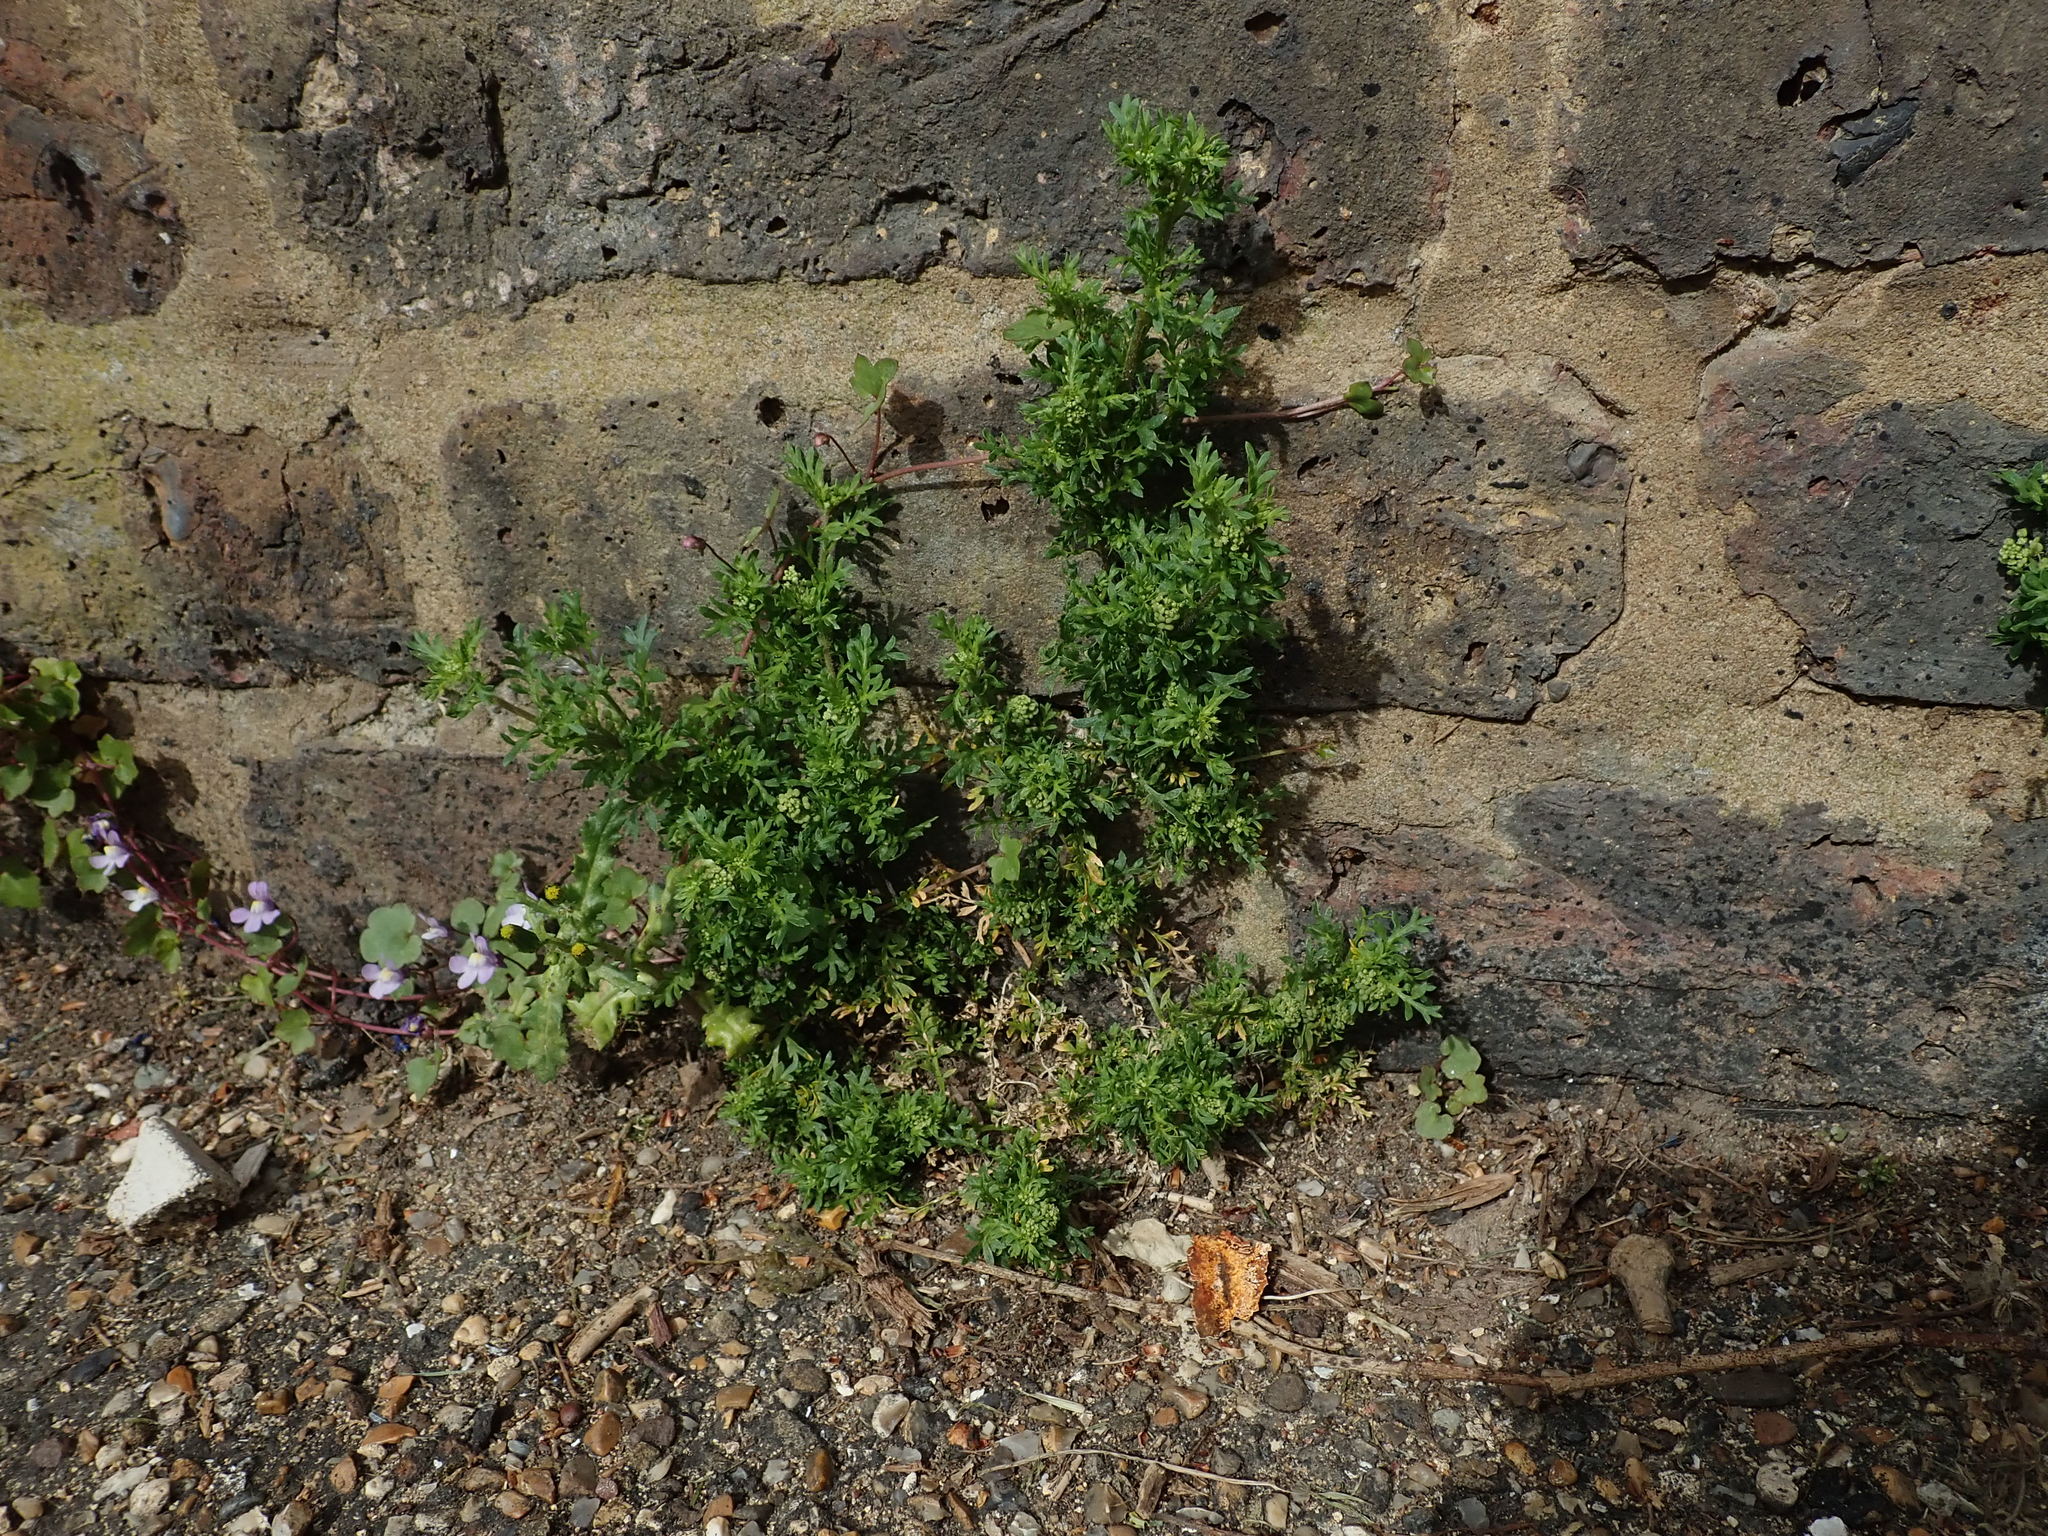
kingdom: Plantae
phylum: Tracheophyta
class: Magnoliopsida
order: Brassicales
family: Brassicaceae
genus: Lepidium
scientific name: Lepidium didymum
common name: Lesser swinecress
